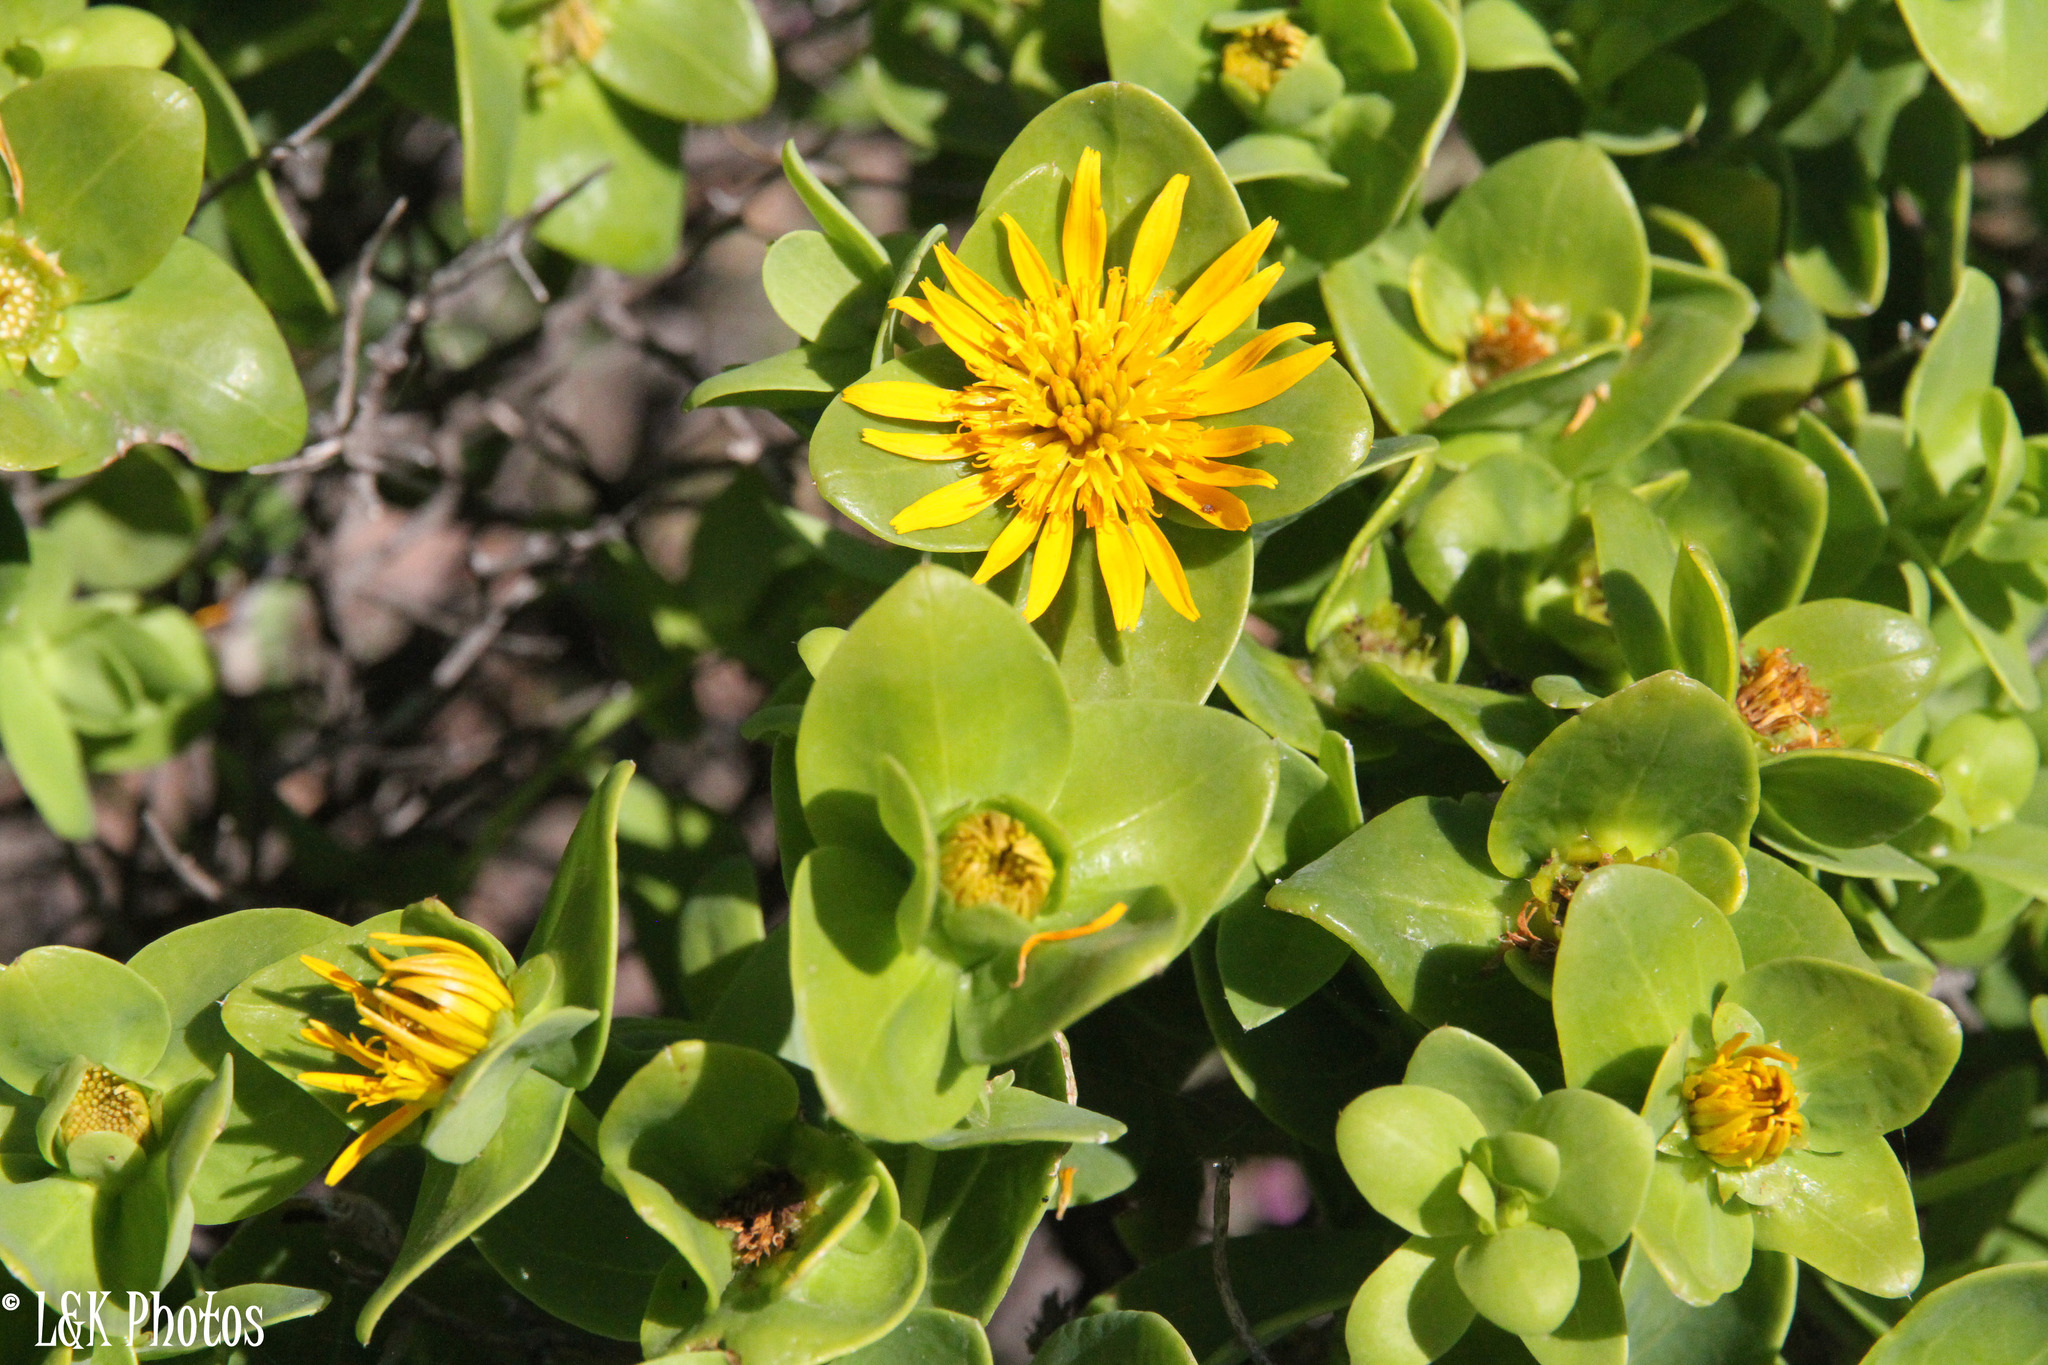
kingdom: Plantae
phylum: Tracheophyta
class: Magnoliopsida
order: Asterales
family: Asteraceae
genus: Didelta
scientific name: Didelta spinosa
